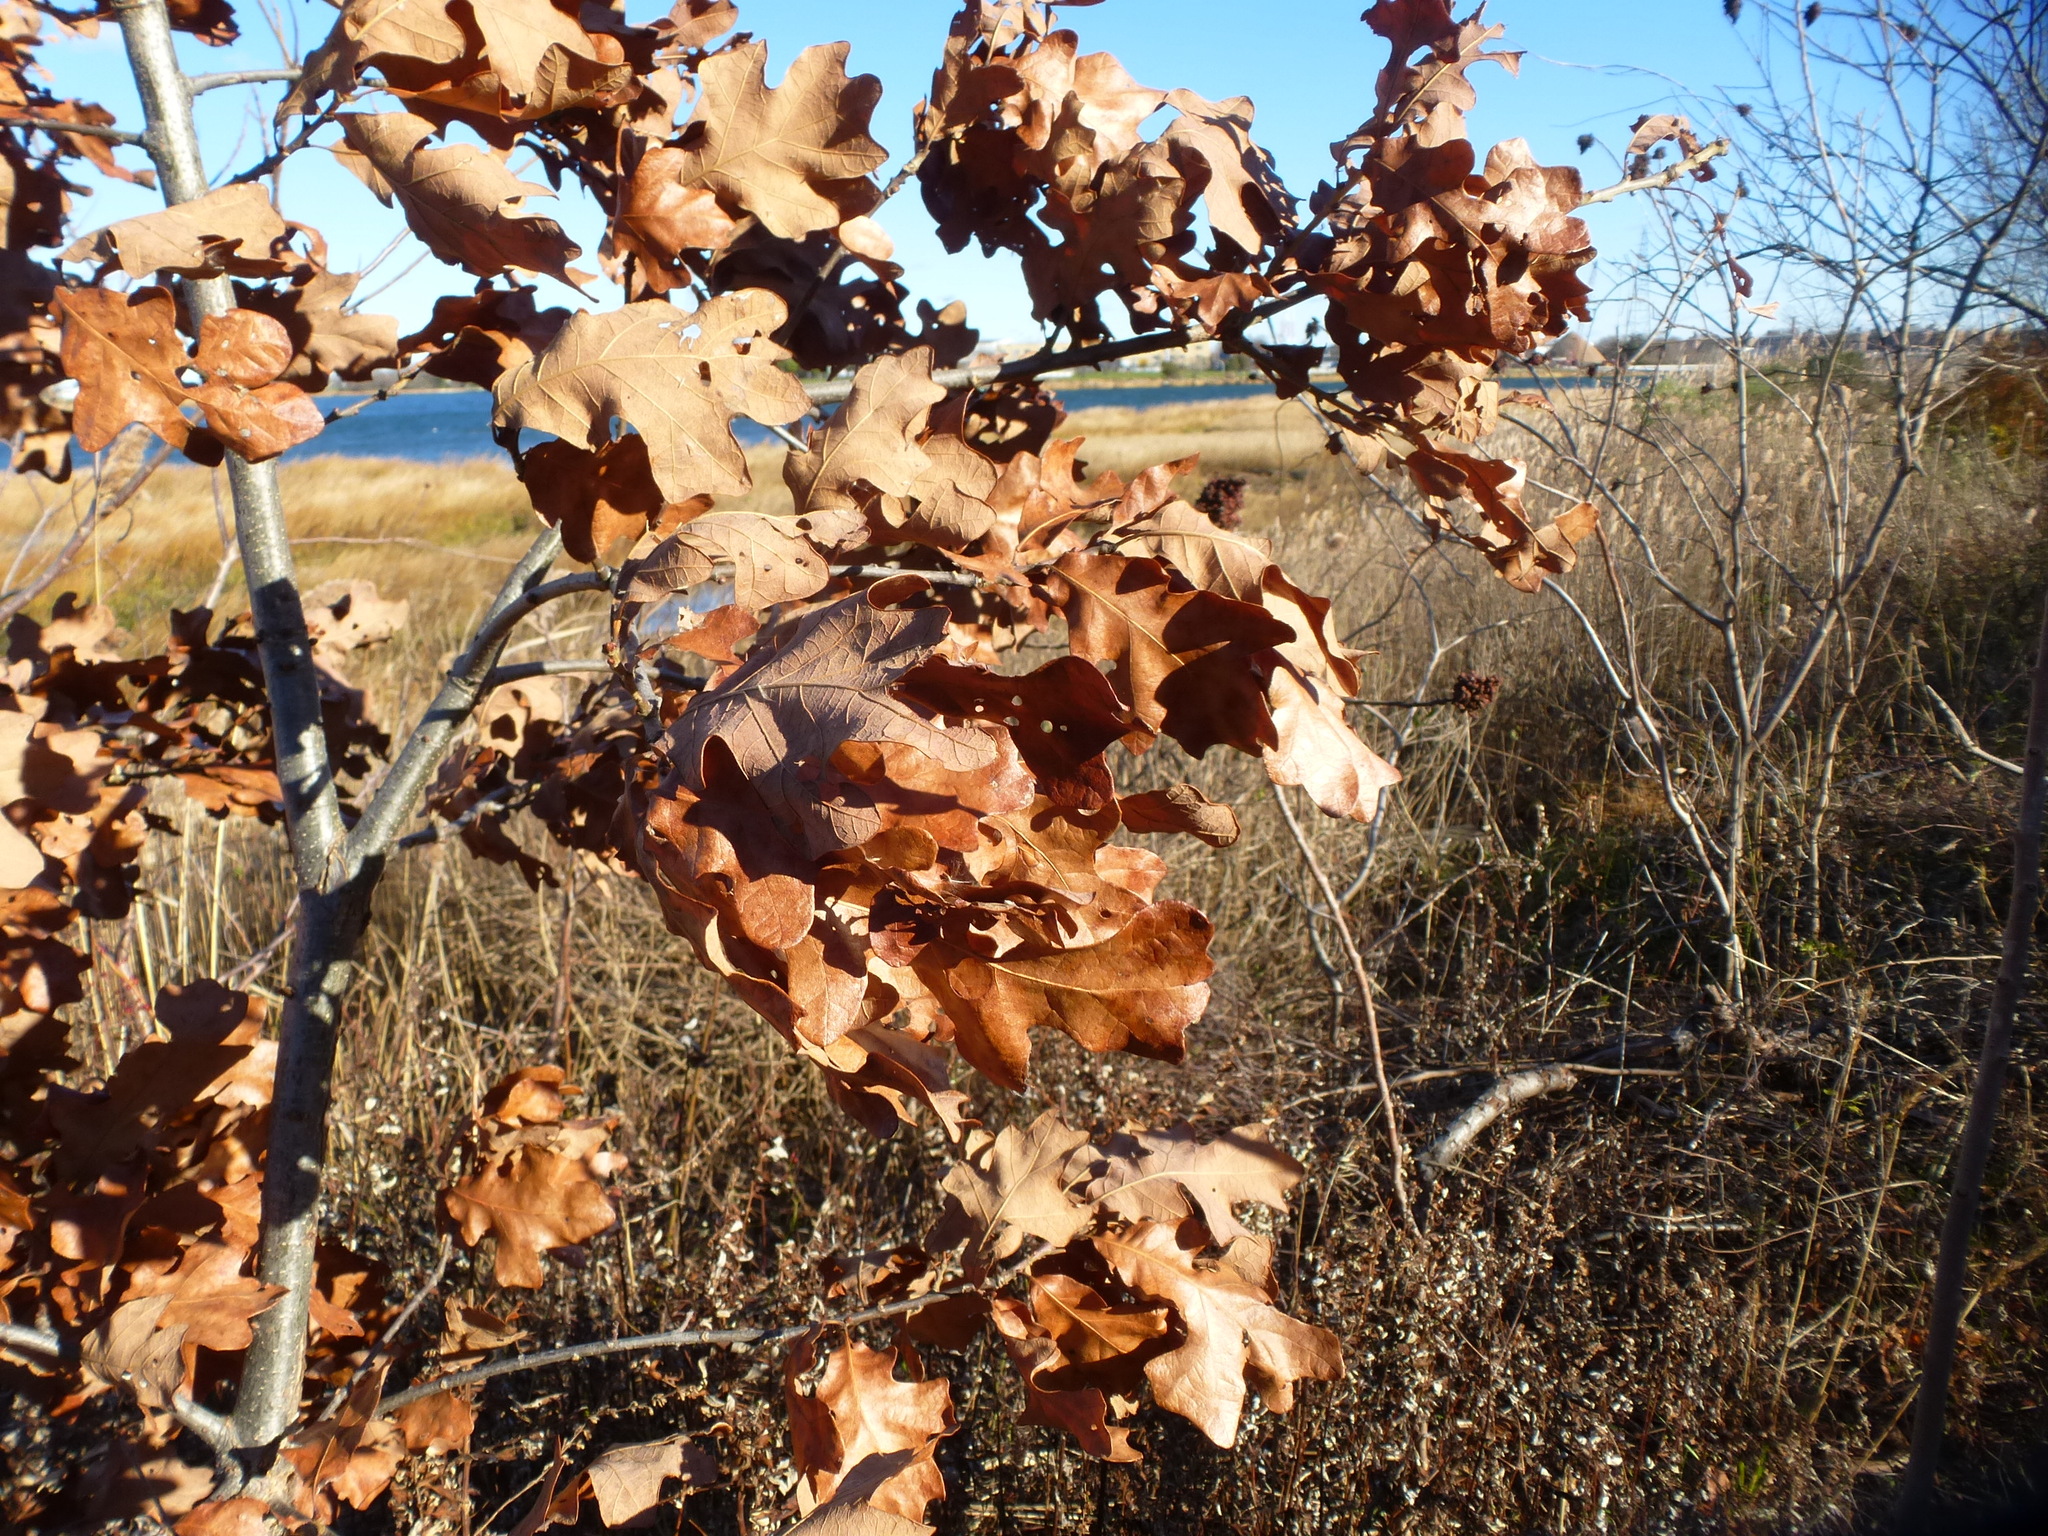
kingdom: Plantae
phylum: Tracheophyta
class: Magnoliopsida
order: Fagales
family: Fagaceae
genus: Quercus
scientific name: Quercus stellata
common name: Post oak
